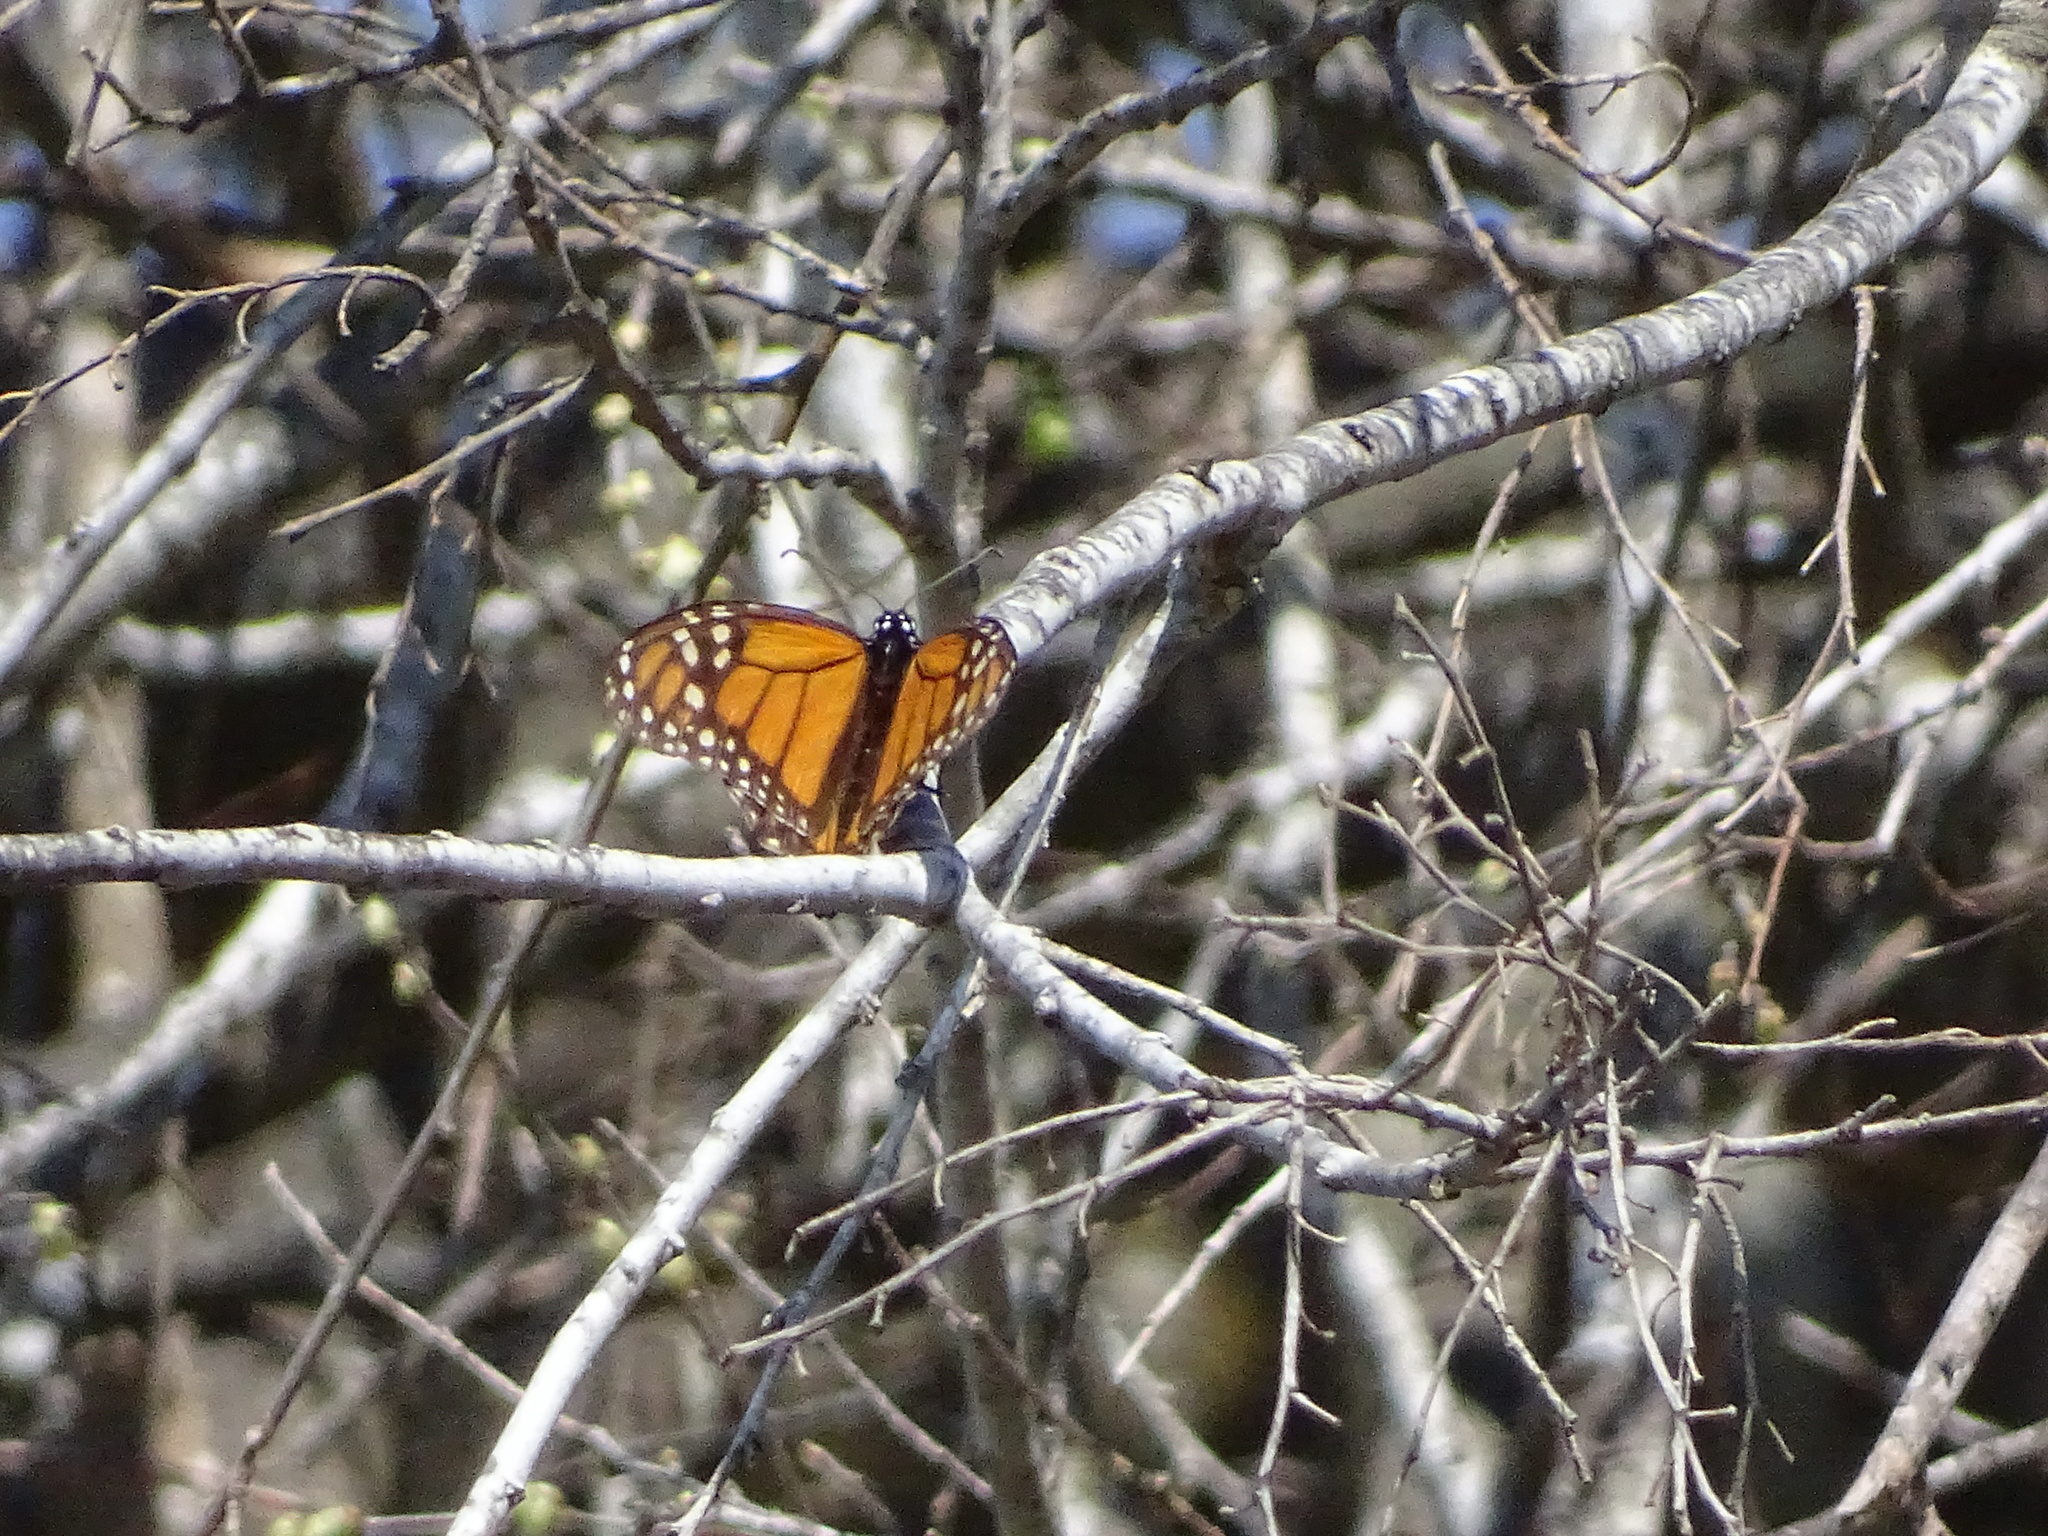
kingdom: Animalia
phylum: Arthropoda
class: Insecta
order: Lepidoptera
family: Nymphalidae
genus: Danaus
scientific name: Danaus plexippus
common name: Monarch
